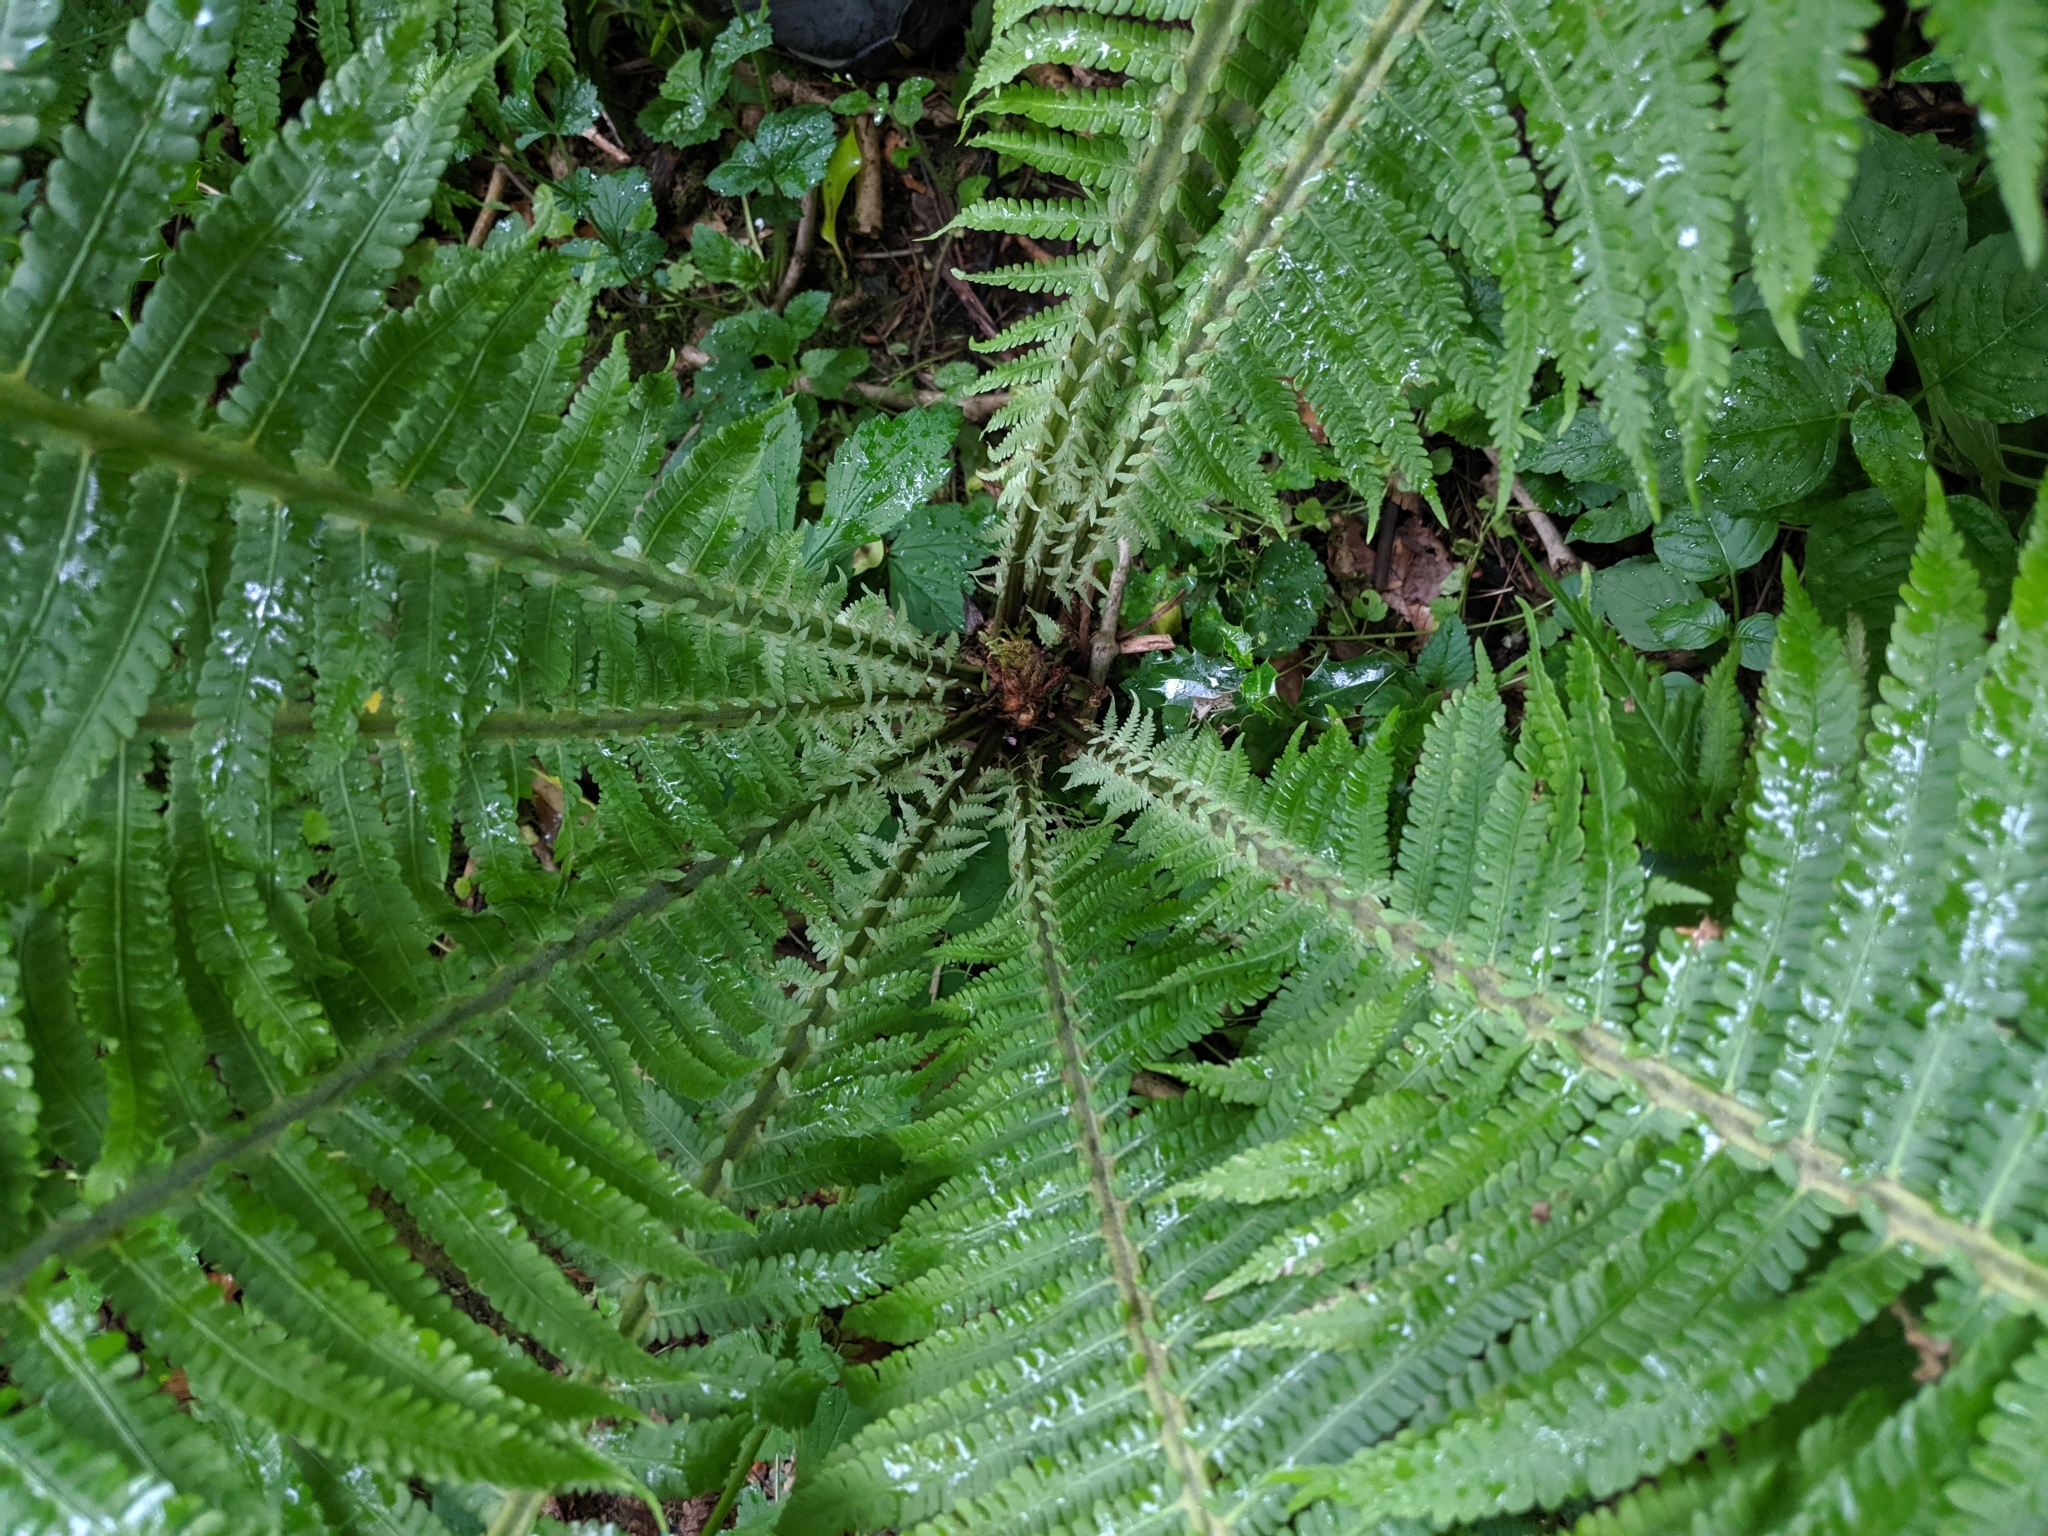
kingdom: Plantae
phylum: Tracheophyta
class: Polypodiopsida
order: Polypodiales
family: Onocleaceae
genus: Matteuccia
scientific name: Matteuccia struthiopteris
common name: Ostrich fern
